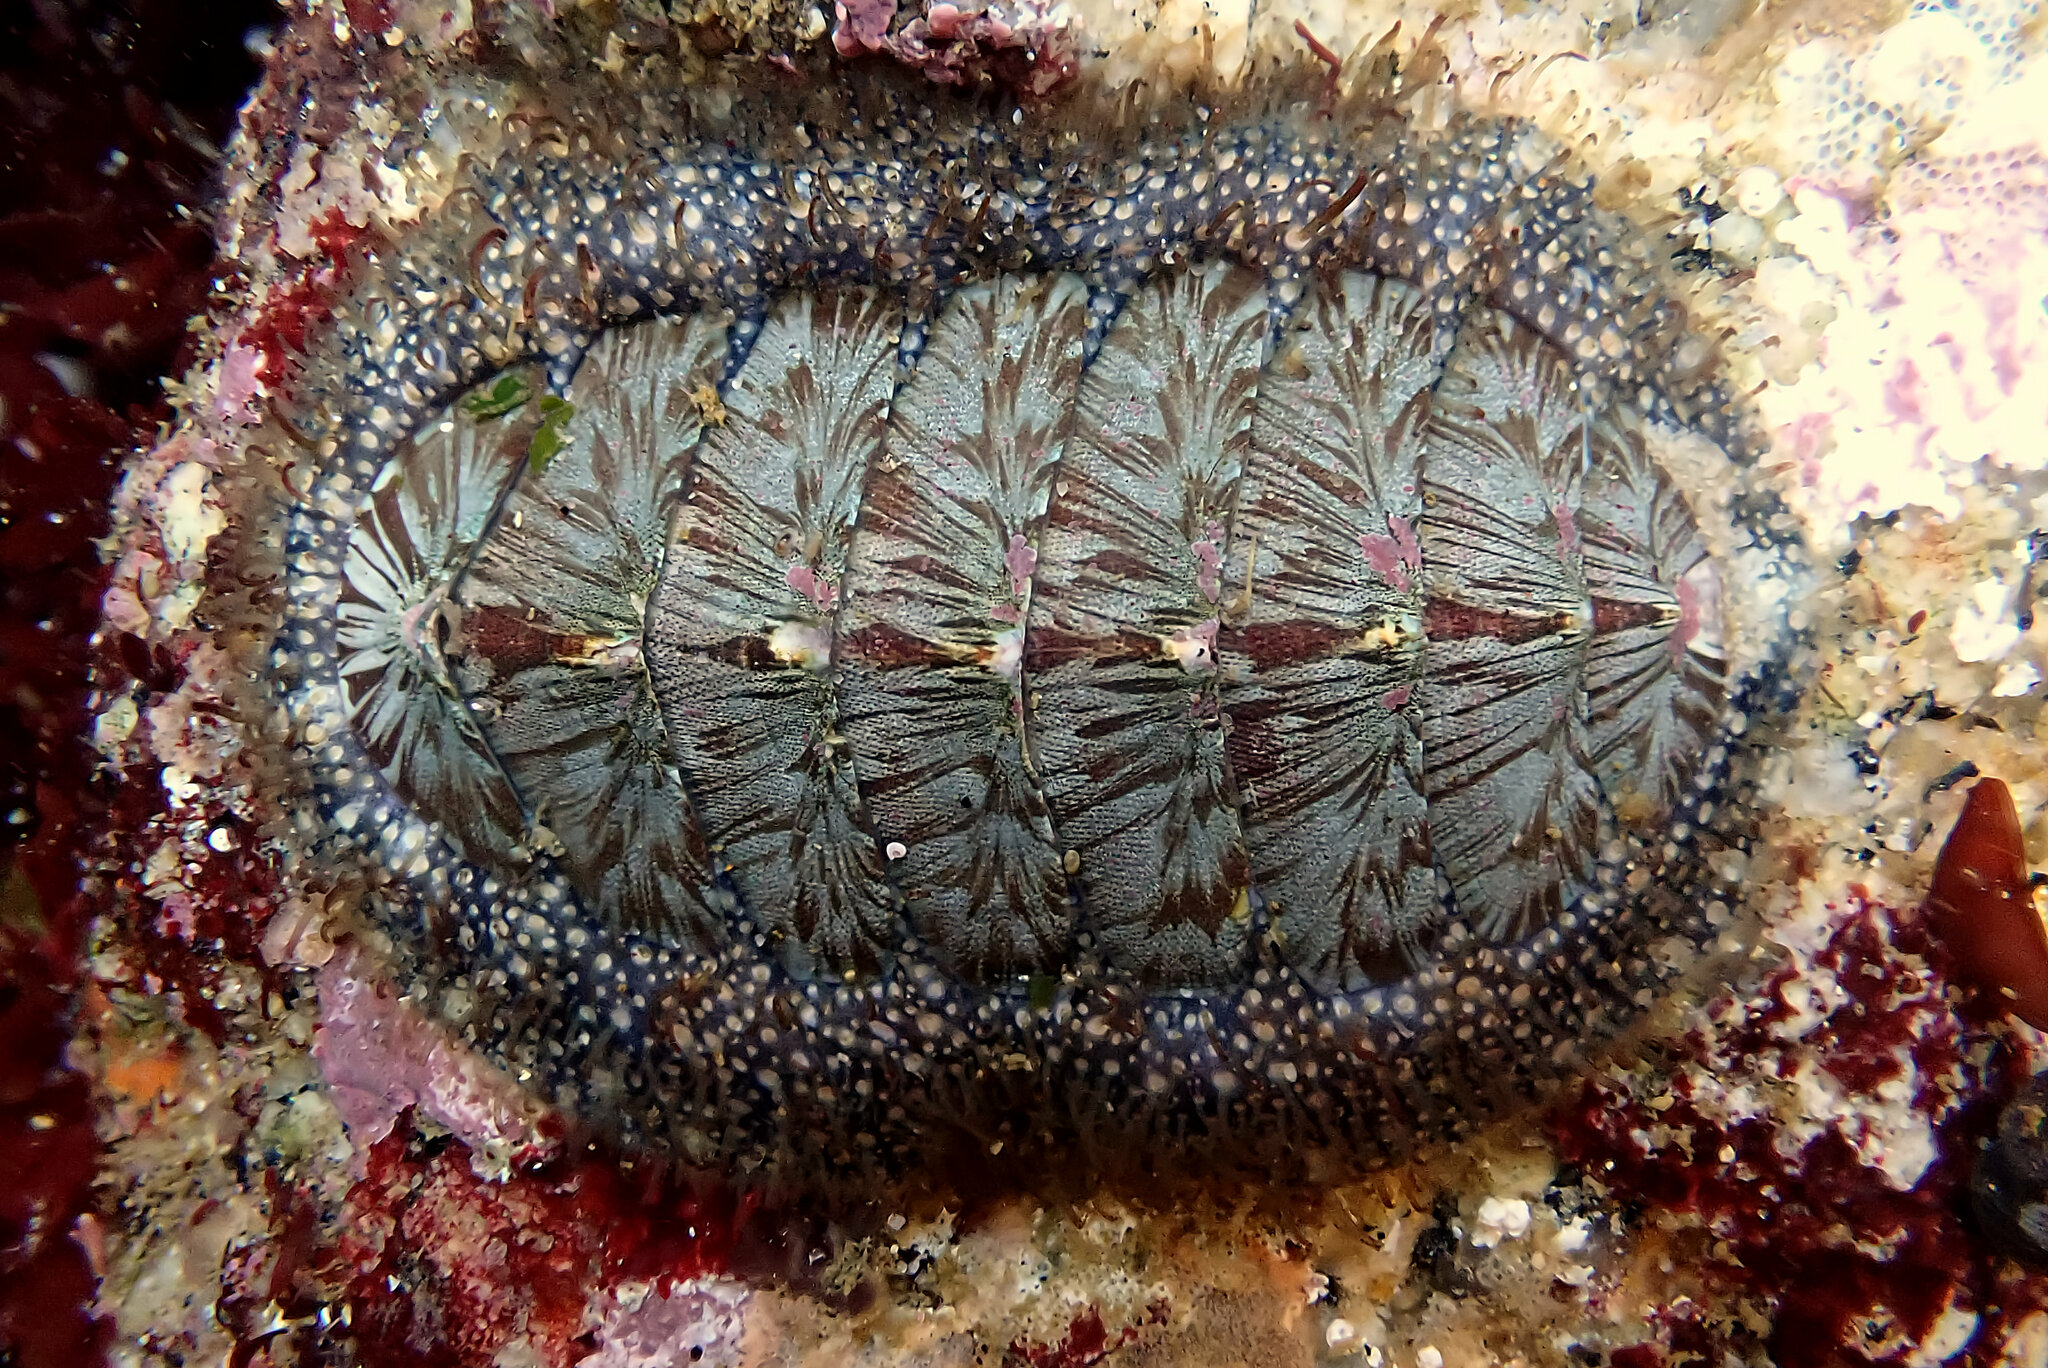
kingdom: Animalia
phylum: Mollusca
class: Polyplacophora
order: Chitonida
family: Mopaliidae
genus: Mopalia
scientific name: Mopalia lignosa
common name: Woody chiton
